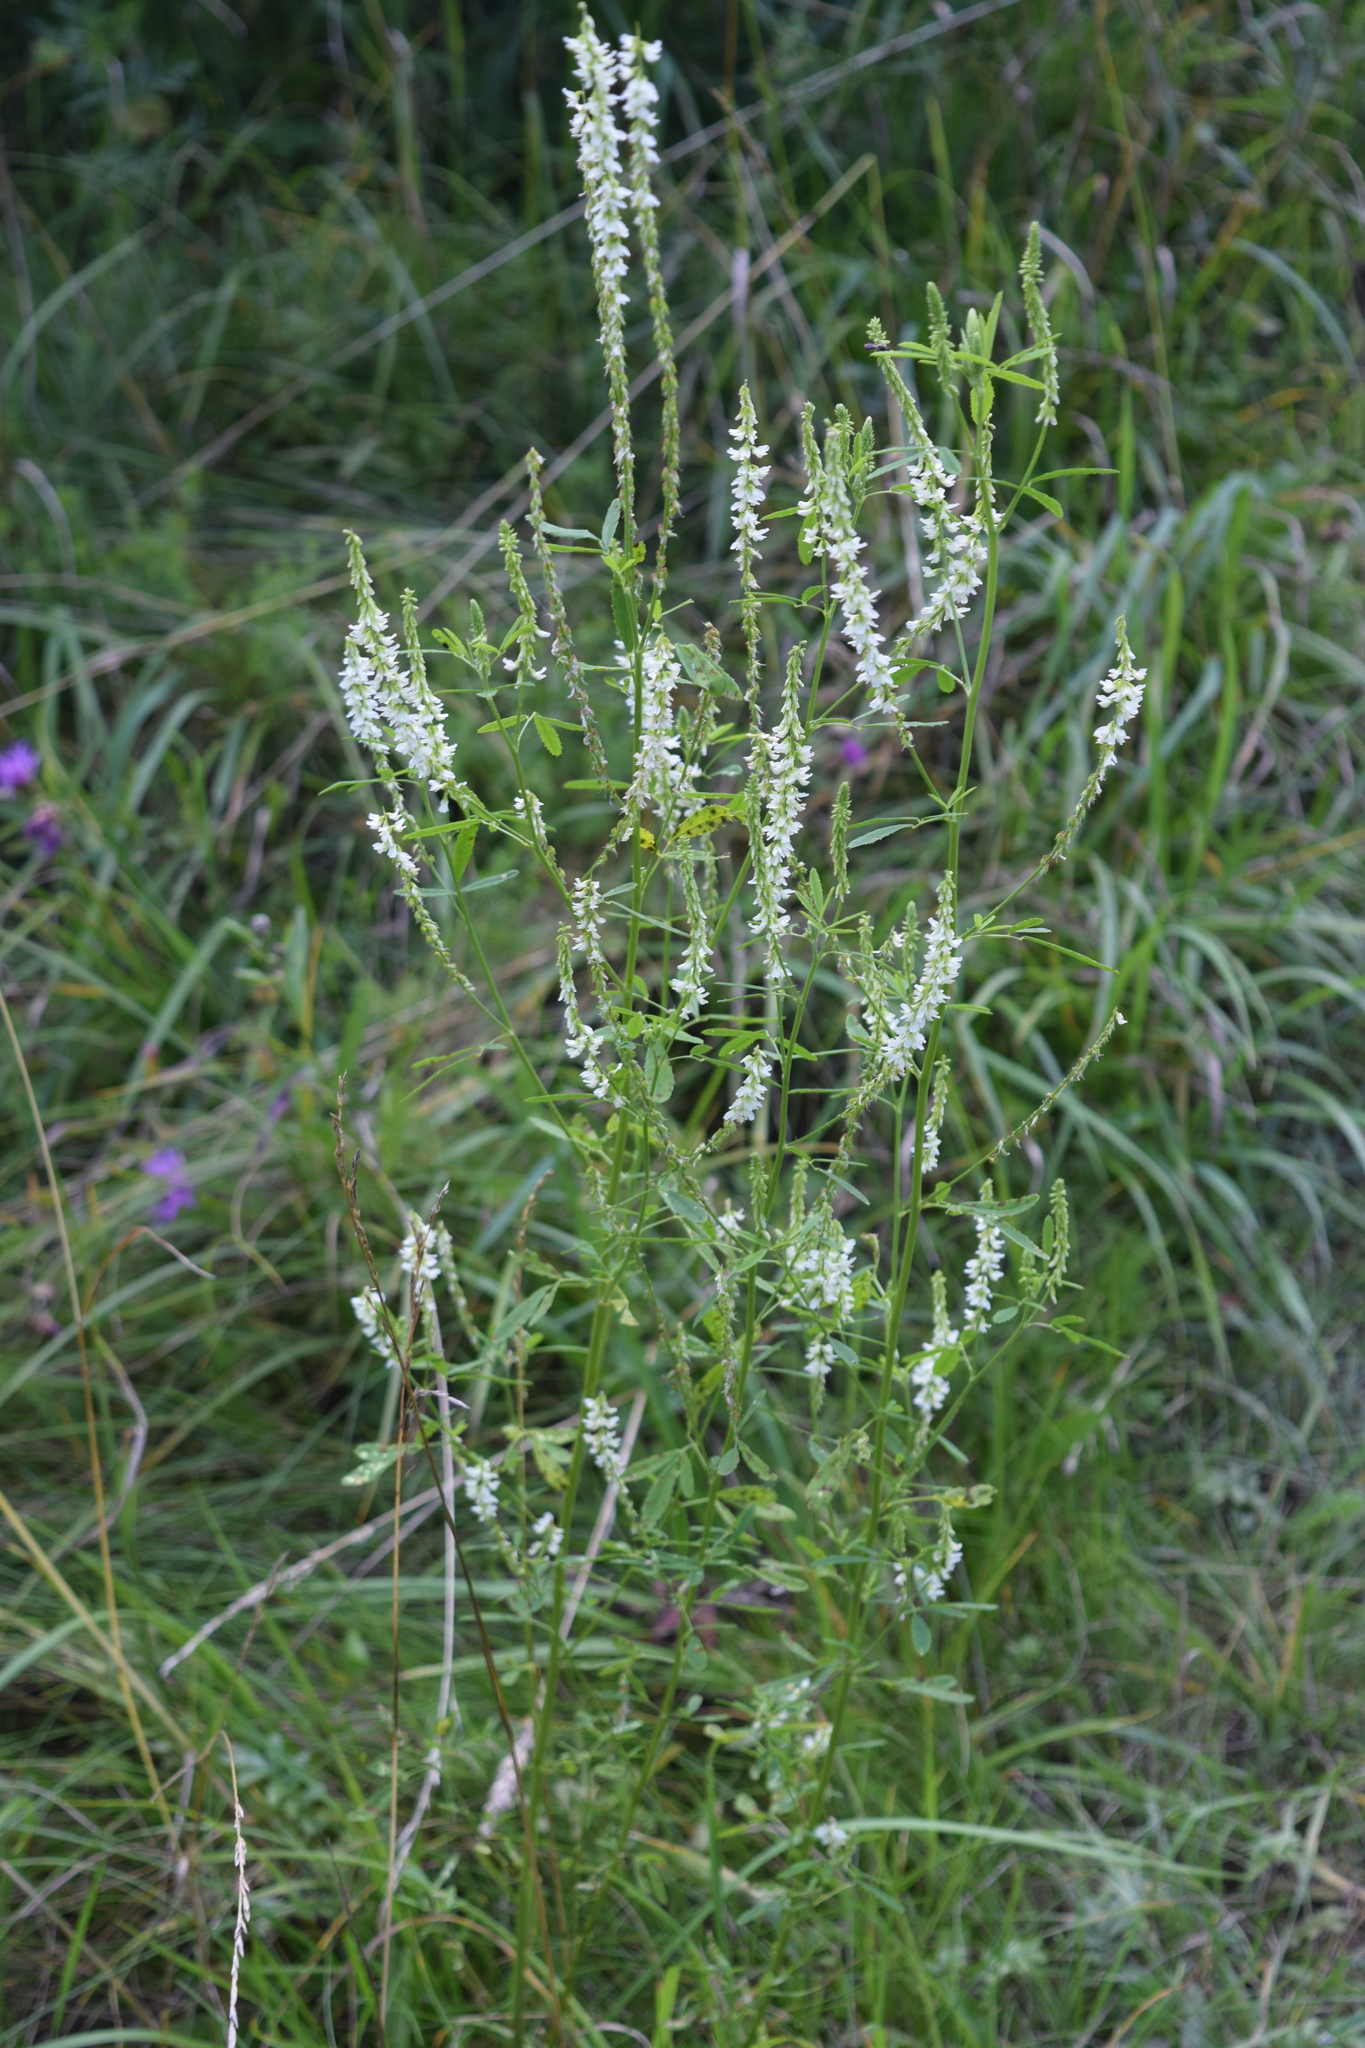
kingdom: Plantae
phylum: Tracheophyta
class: Magnoliopsida
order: Fabales
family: Fabaceae
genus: Melilotus
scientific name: Melilotus albus
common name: White melilot
